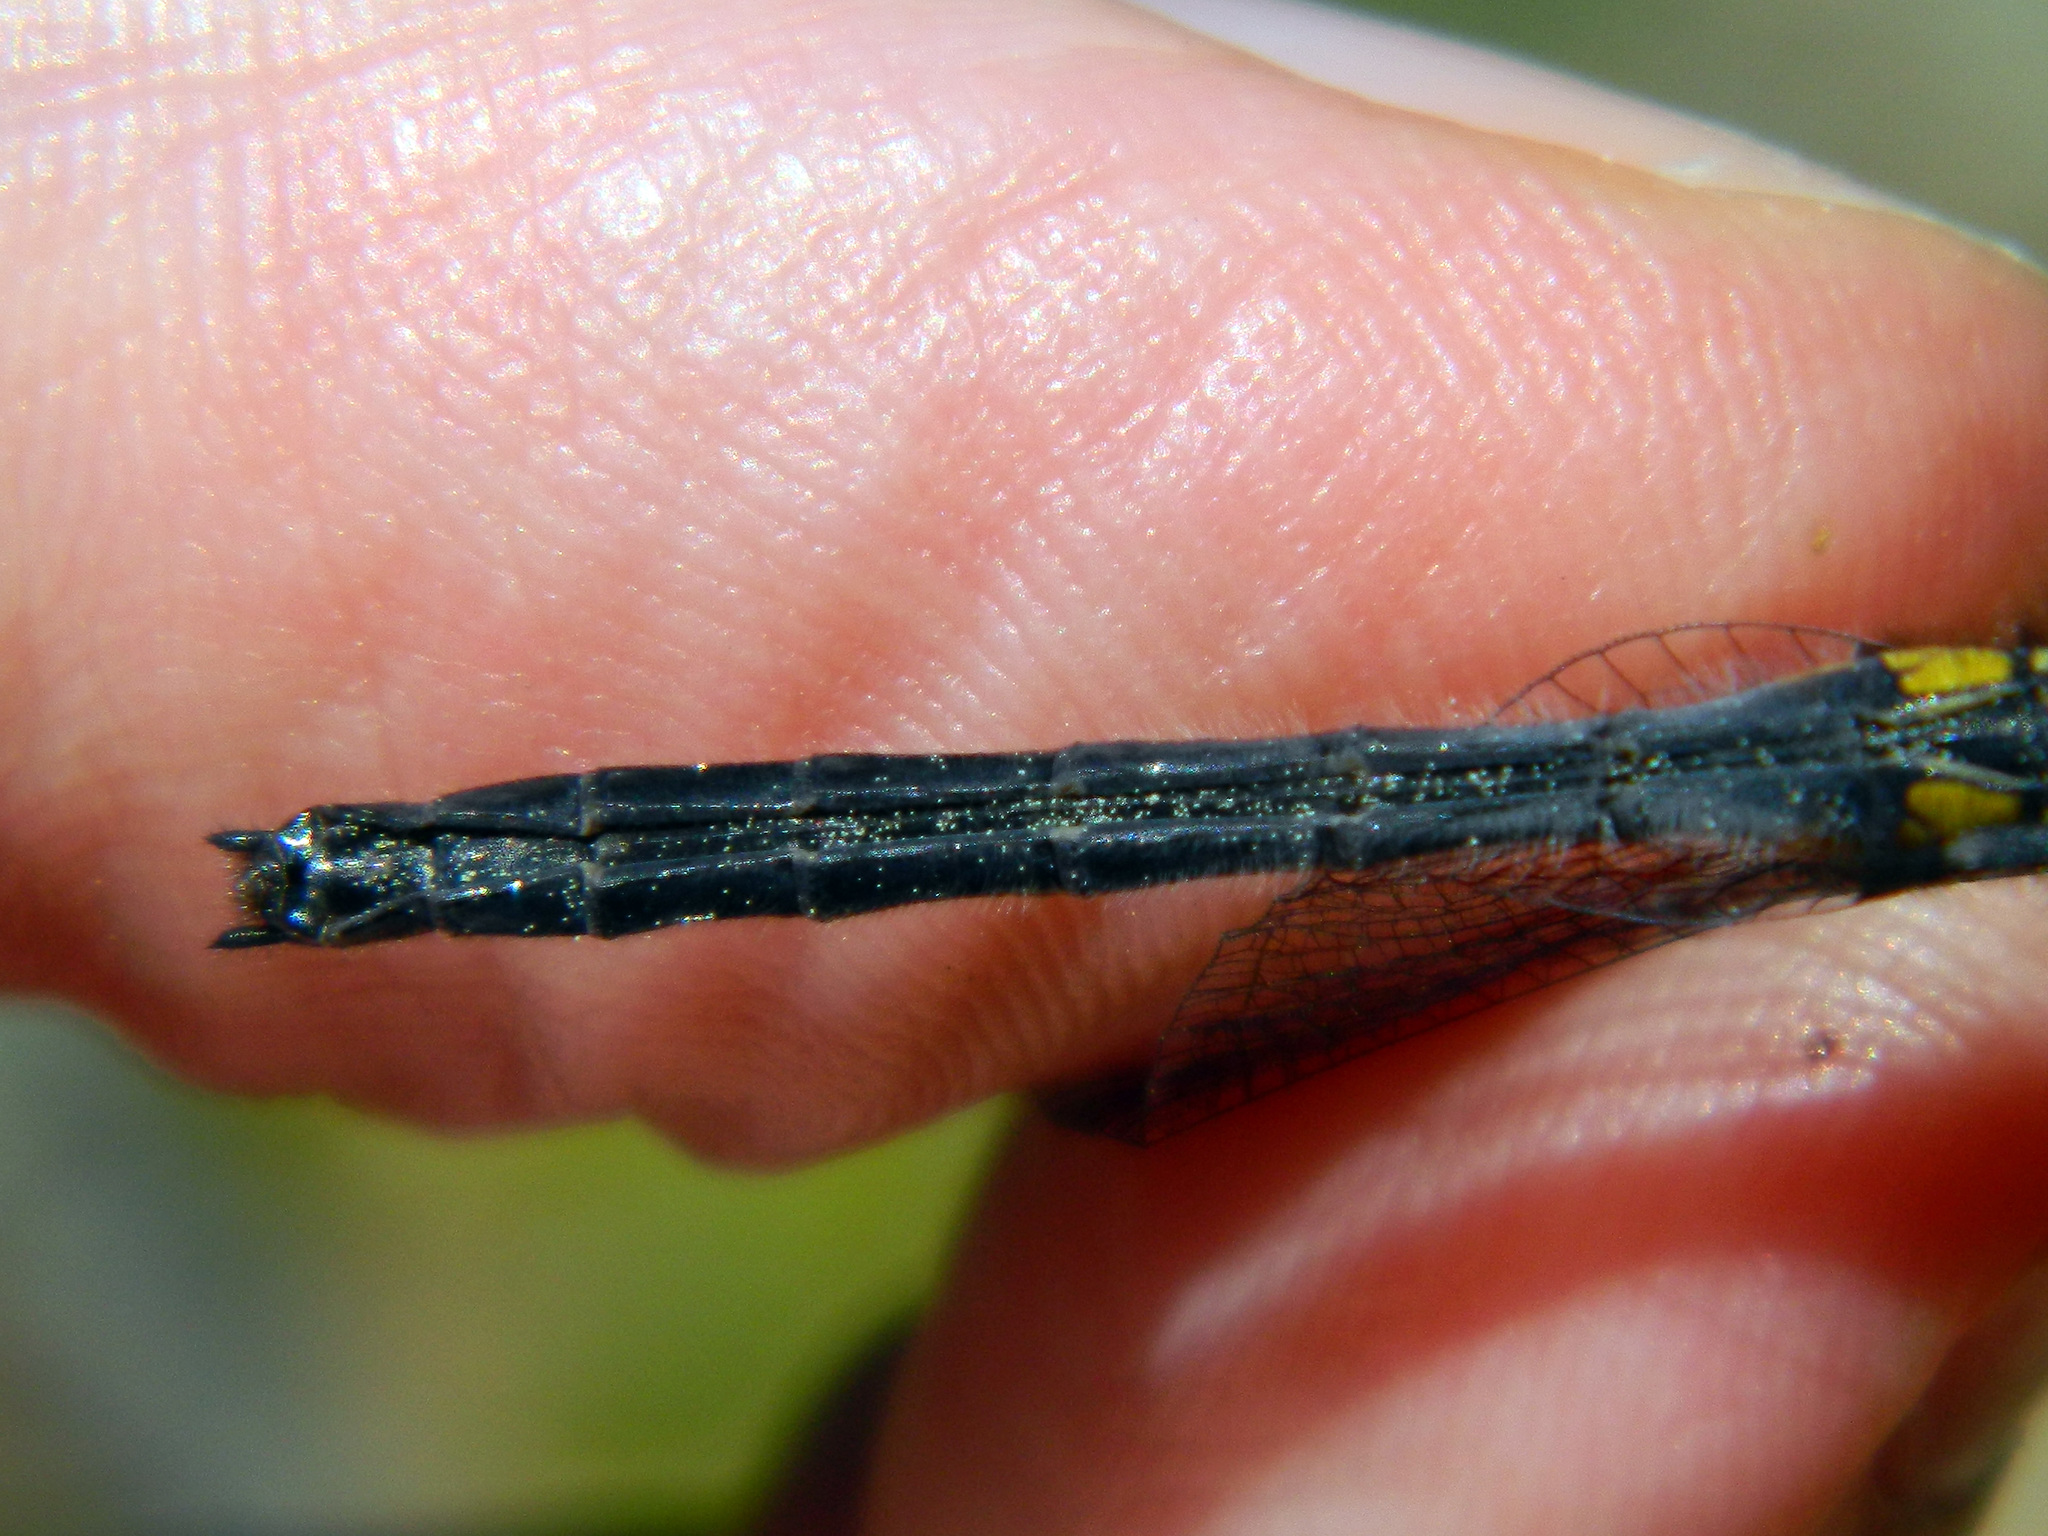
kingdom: Animalia
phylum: Arthropoda
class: Insecta
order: Odonata
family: Libellulidae
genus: Leucorrhinia
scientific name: Leucorrhinia glacialis
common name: Crimson-ringed whiteface
